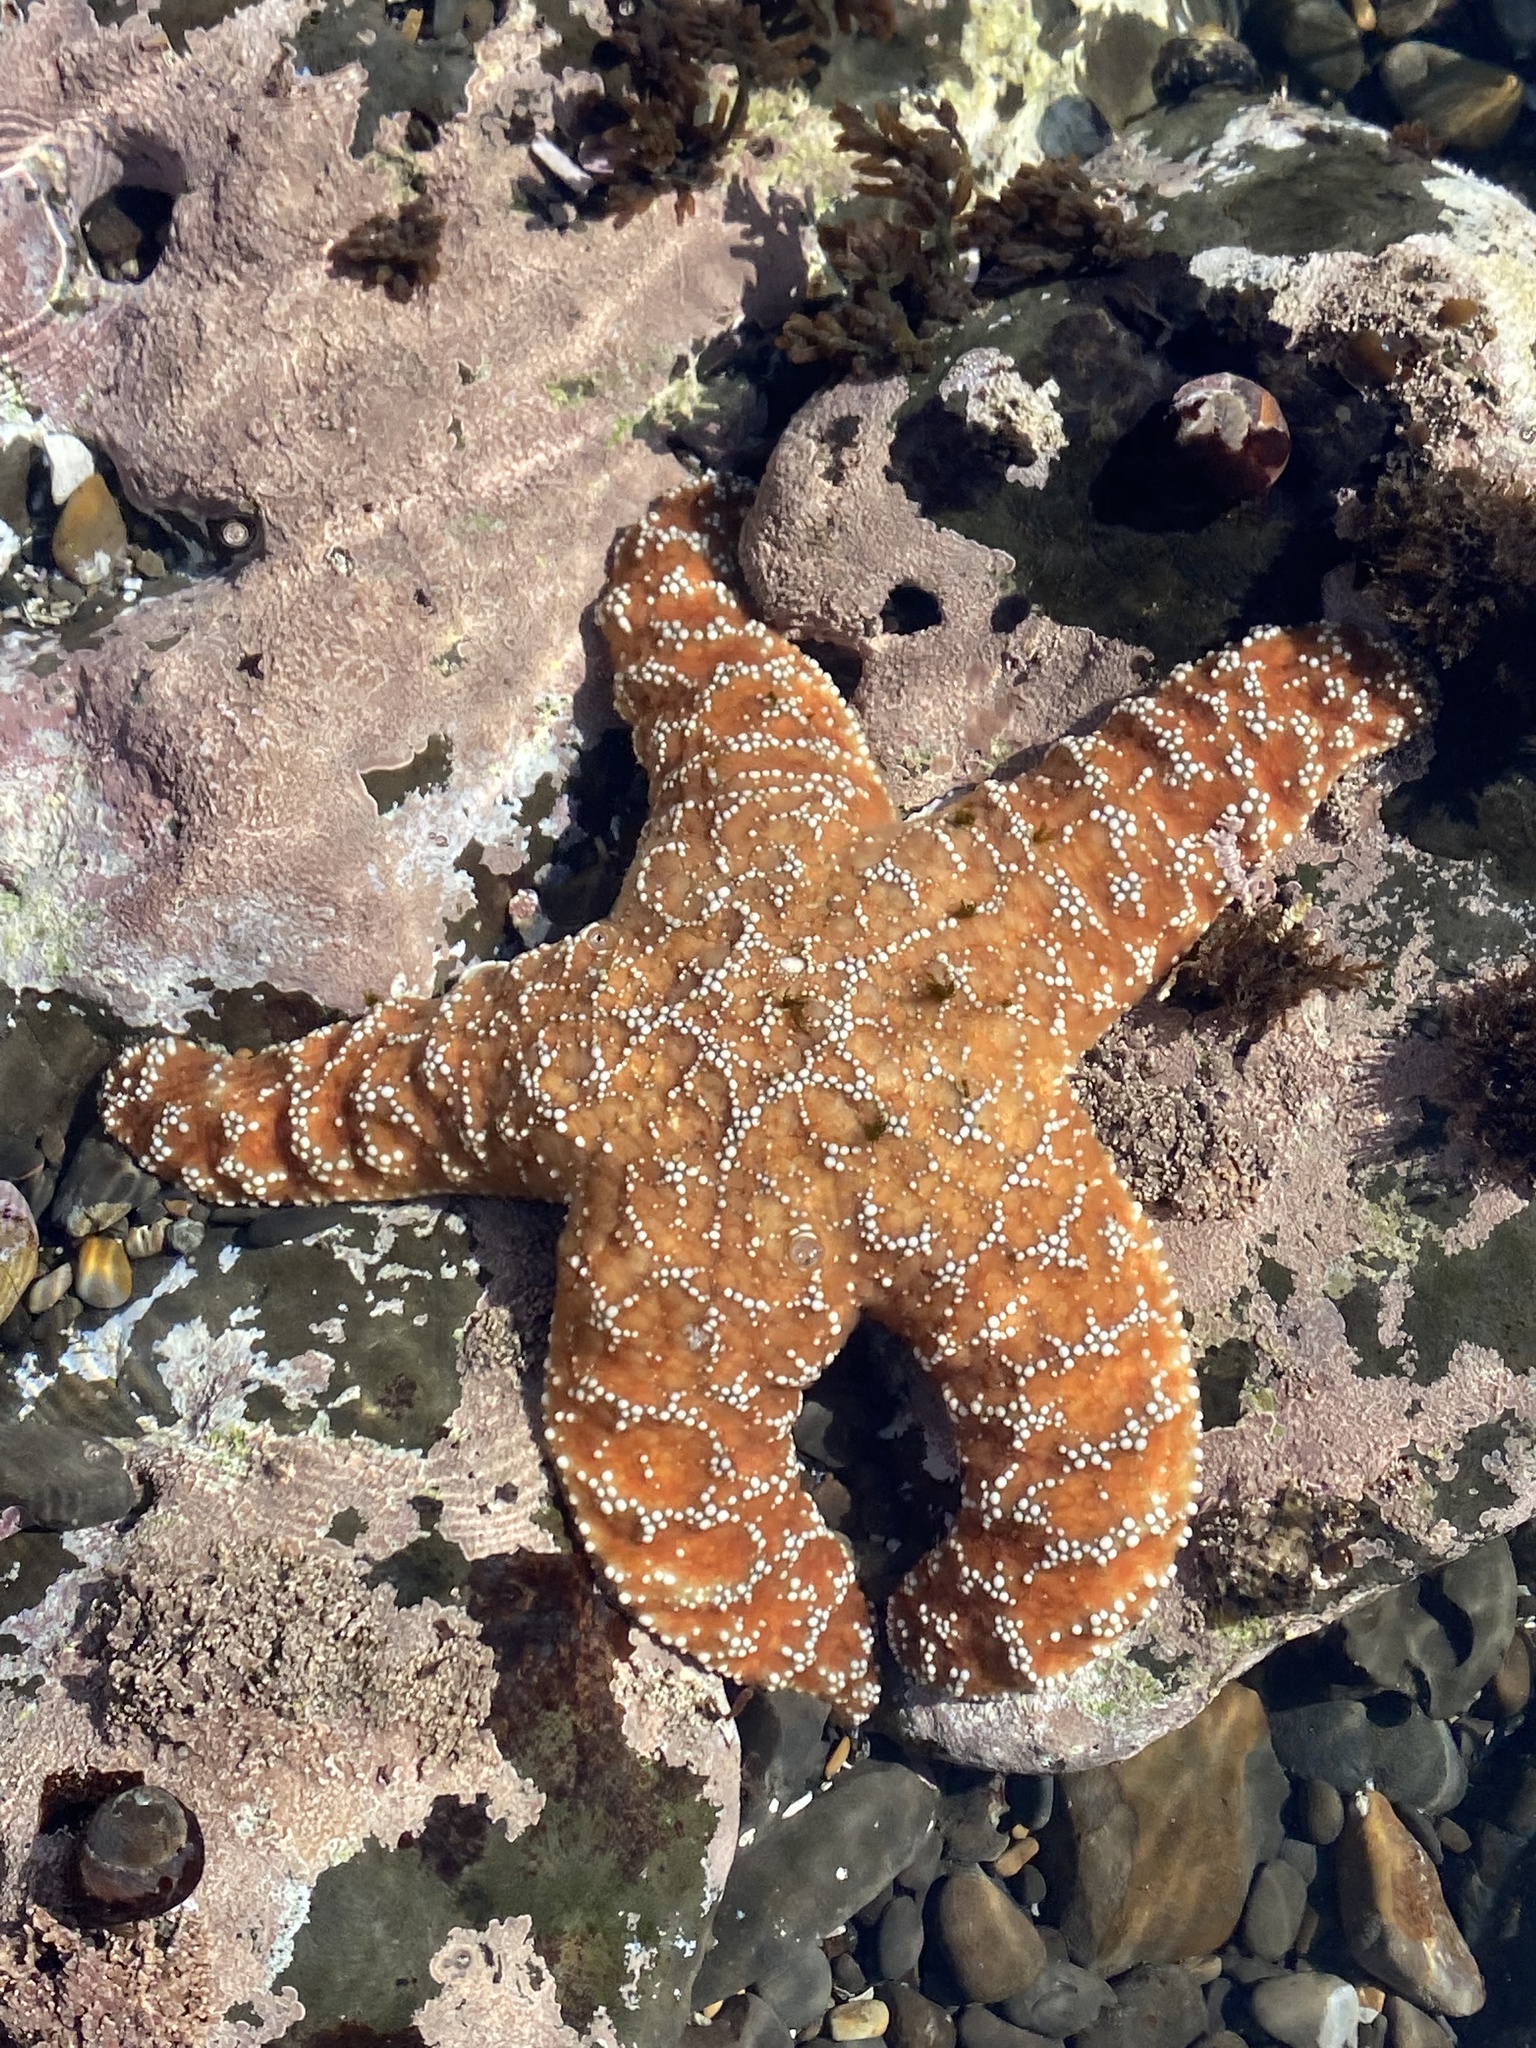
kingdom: Animalia
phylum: Echinodermata
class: Asteroidea
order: Forcipulatida
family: Asteriidae
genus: Pisaster
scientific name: Pisaster ochraceus
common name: Ochre stars
